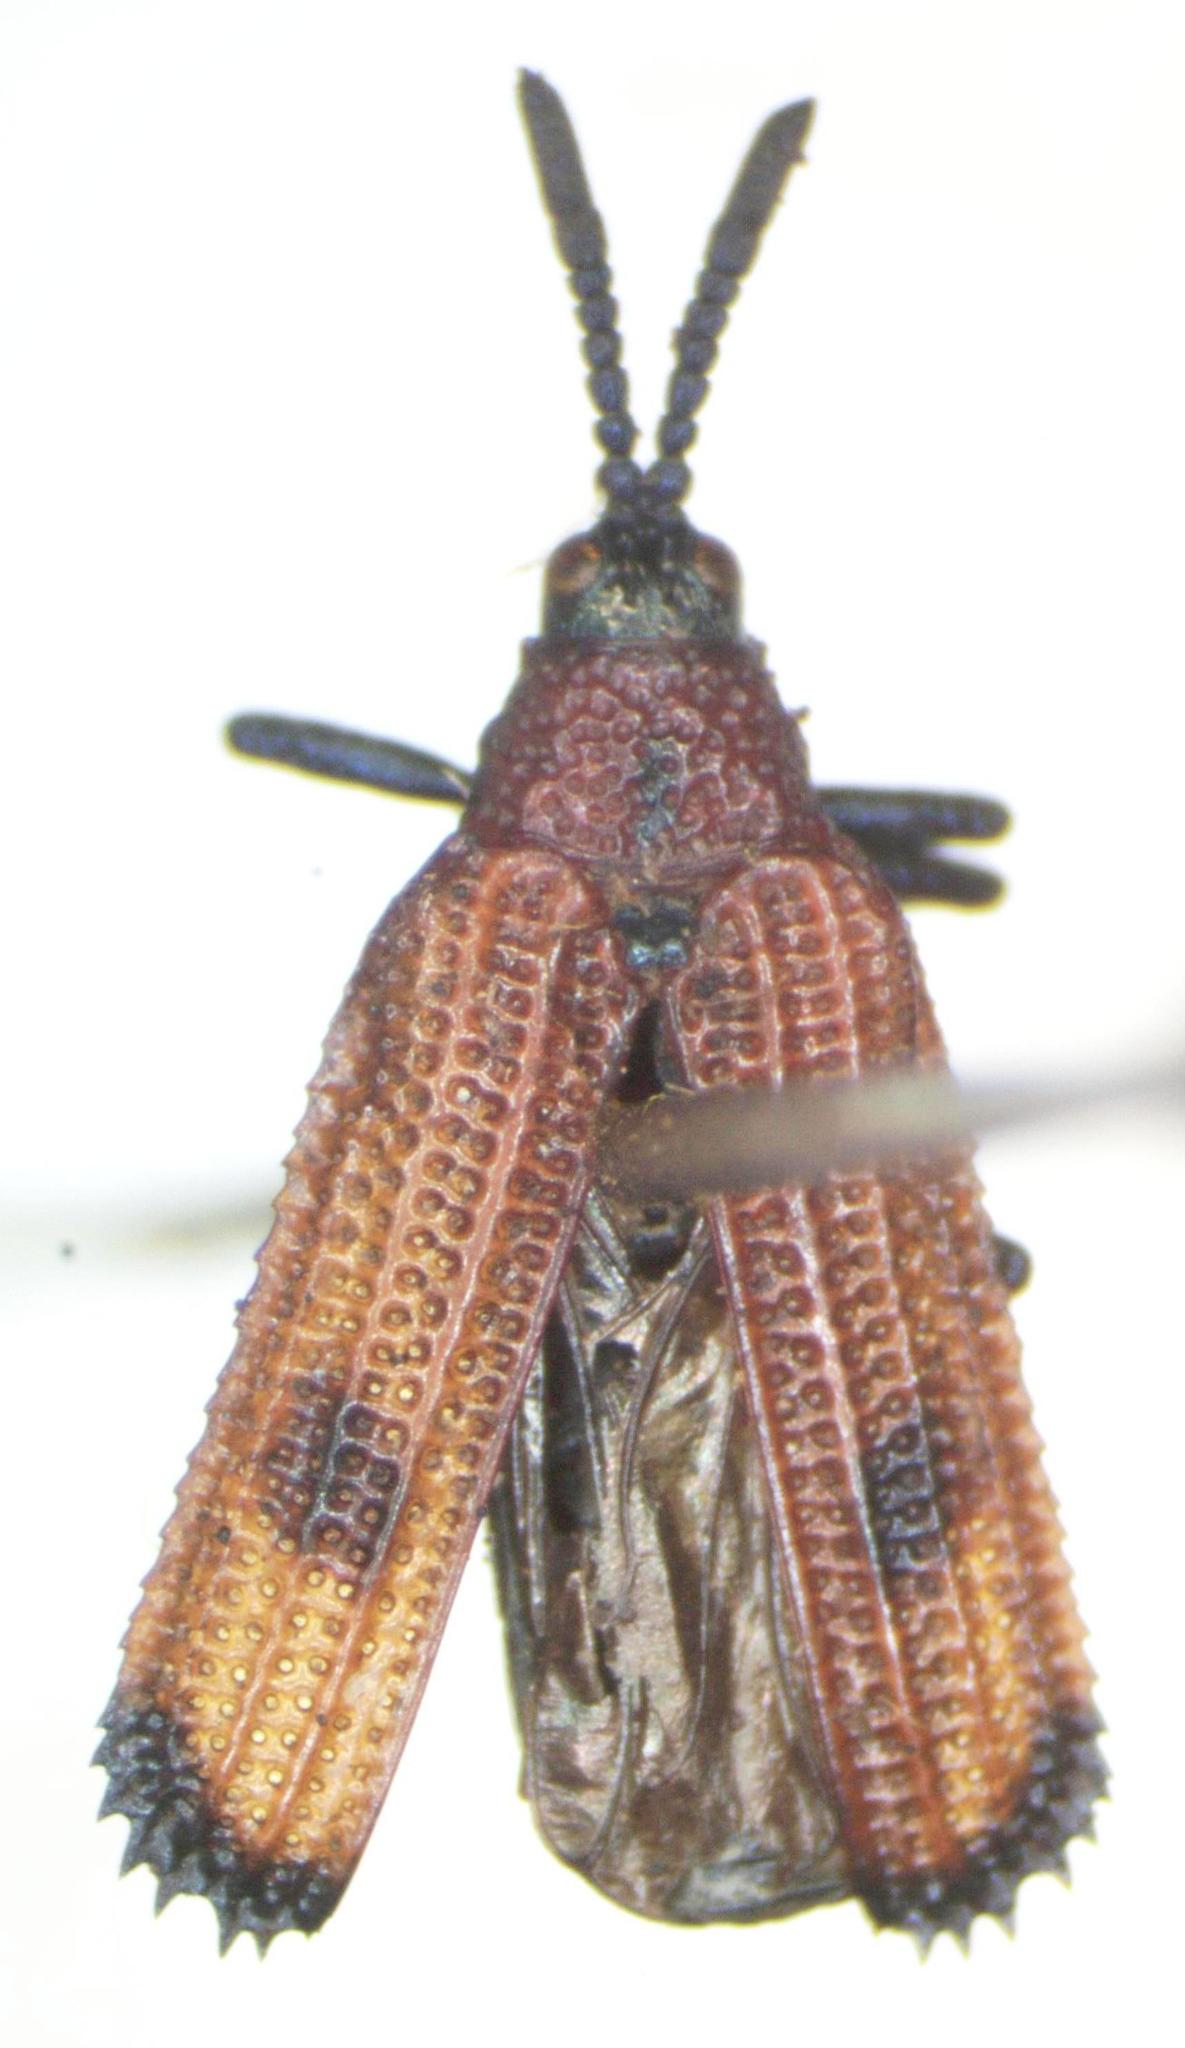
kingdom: Animalia
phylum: Arthropoda
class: Insecta
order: Coleoptera
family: Chrysomelidae
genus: Pentispa
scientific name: Pentispa beata
